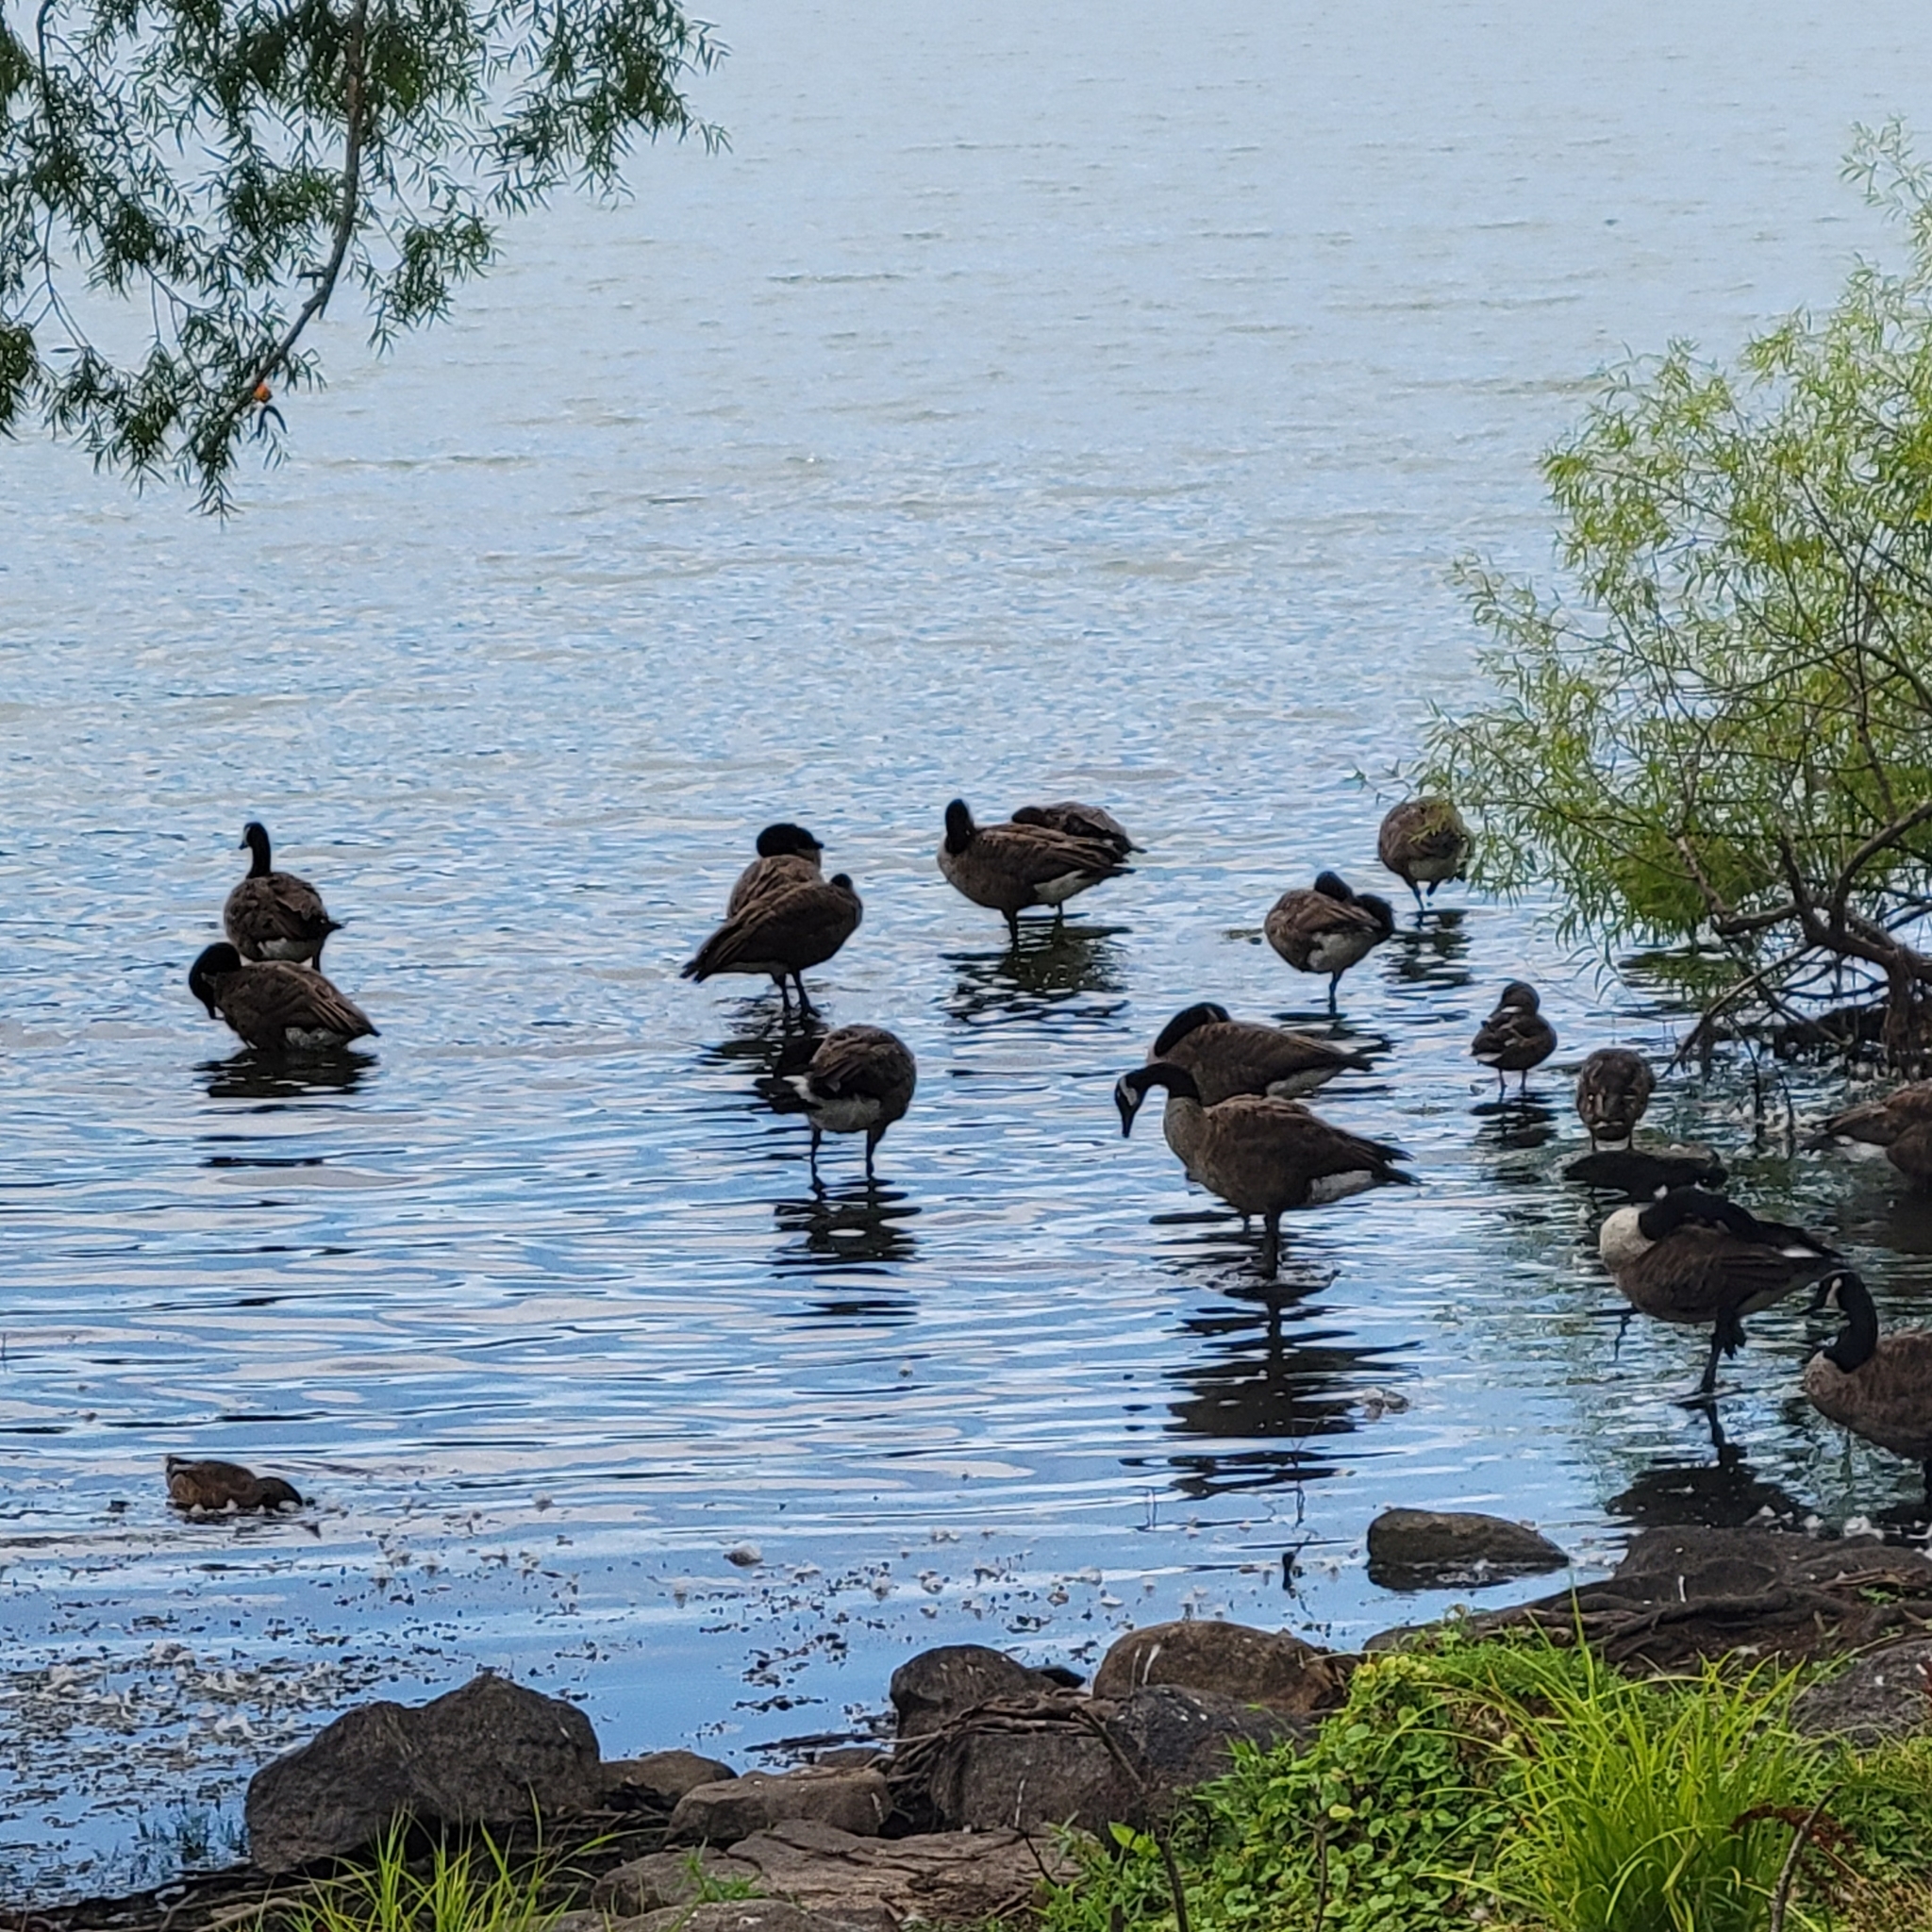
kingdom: Animalia
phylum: Chordata
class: Aves
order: Anseriformes
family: Anatidae
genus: Branta
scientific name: Branta canadensis
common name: Canada goose
